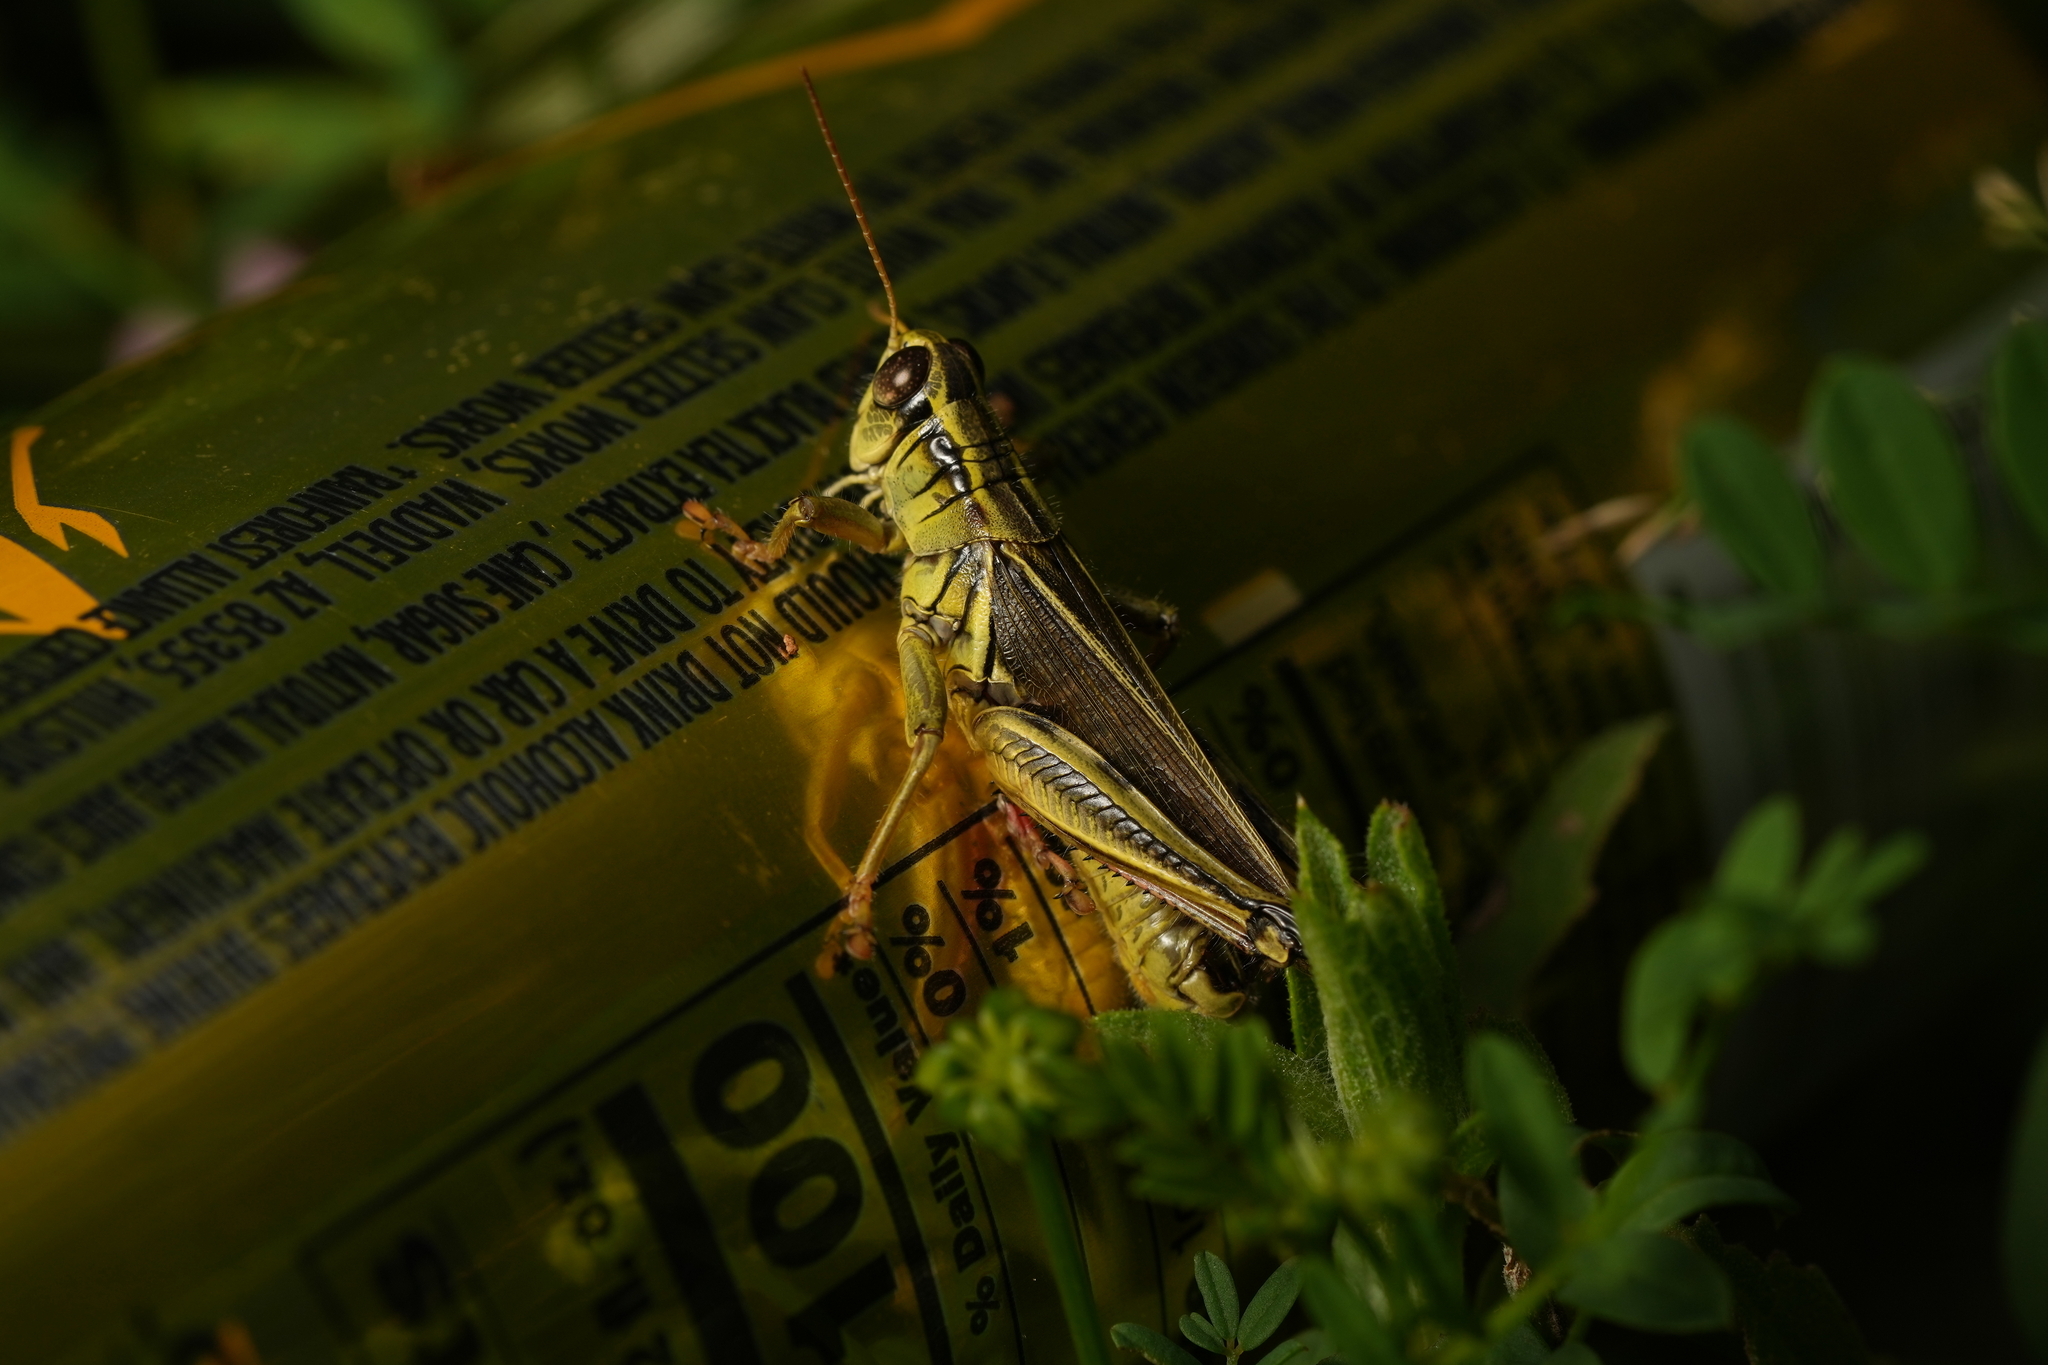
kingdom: Animalia
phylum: Arthropoda
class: Insecta
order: Orthoptera
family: Acrididae
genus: Melanoplus
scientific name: Melanoplus bivittatus
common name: Two-striped grasshopper
